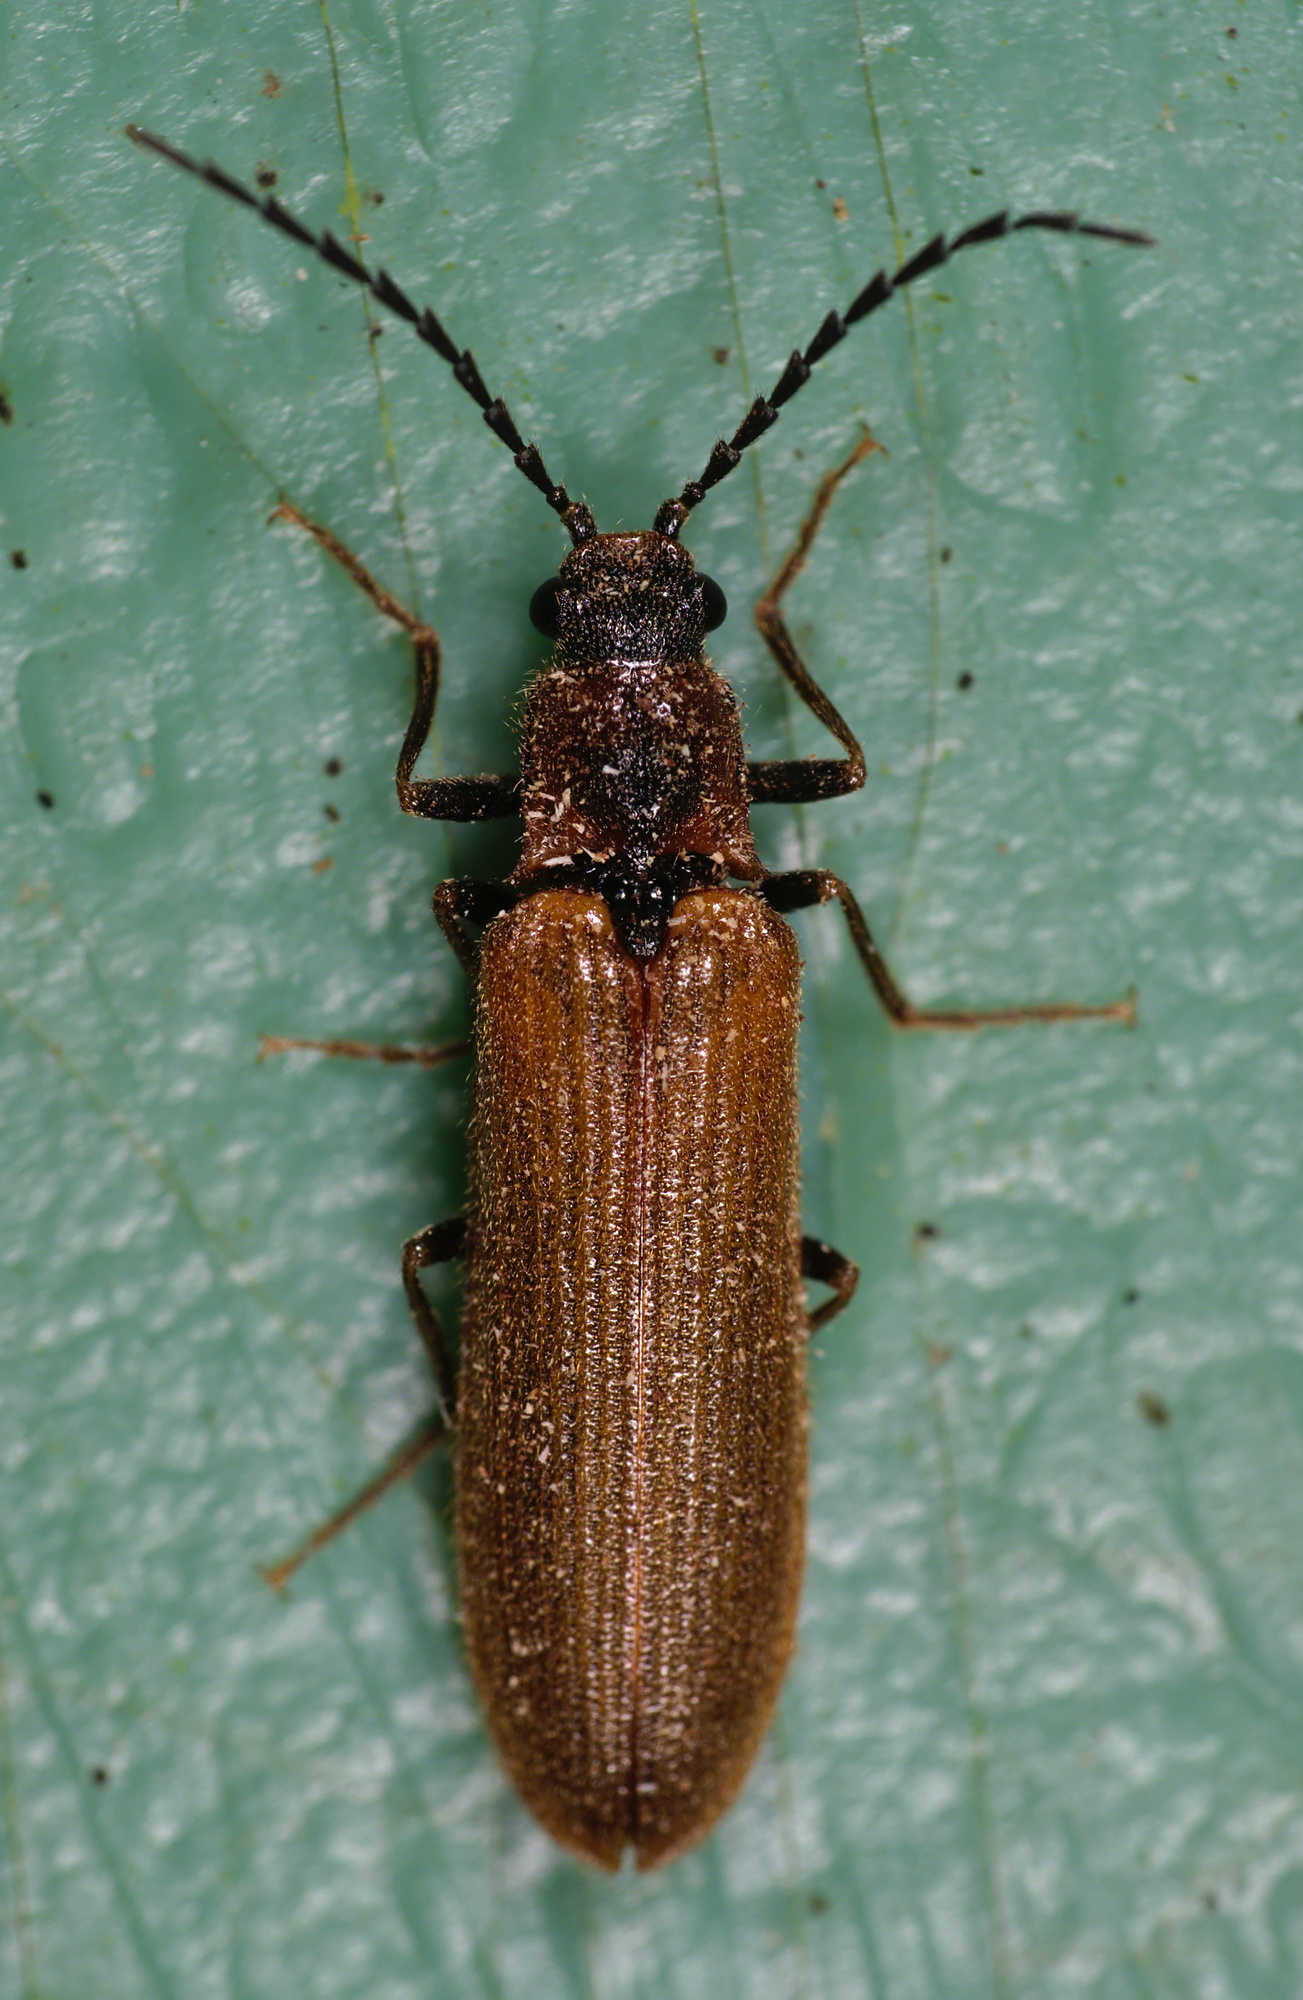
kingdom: Animalia
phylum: Arthropoda
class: Insecta
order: Coleoptera
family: Elateridae
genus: Denticollis
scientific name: Denticollis linearis
